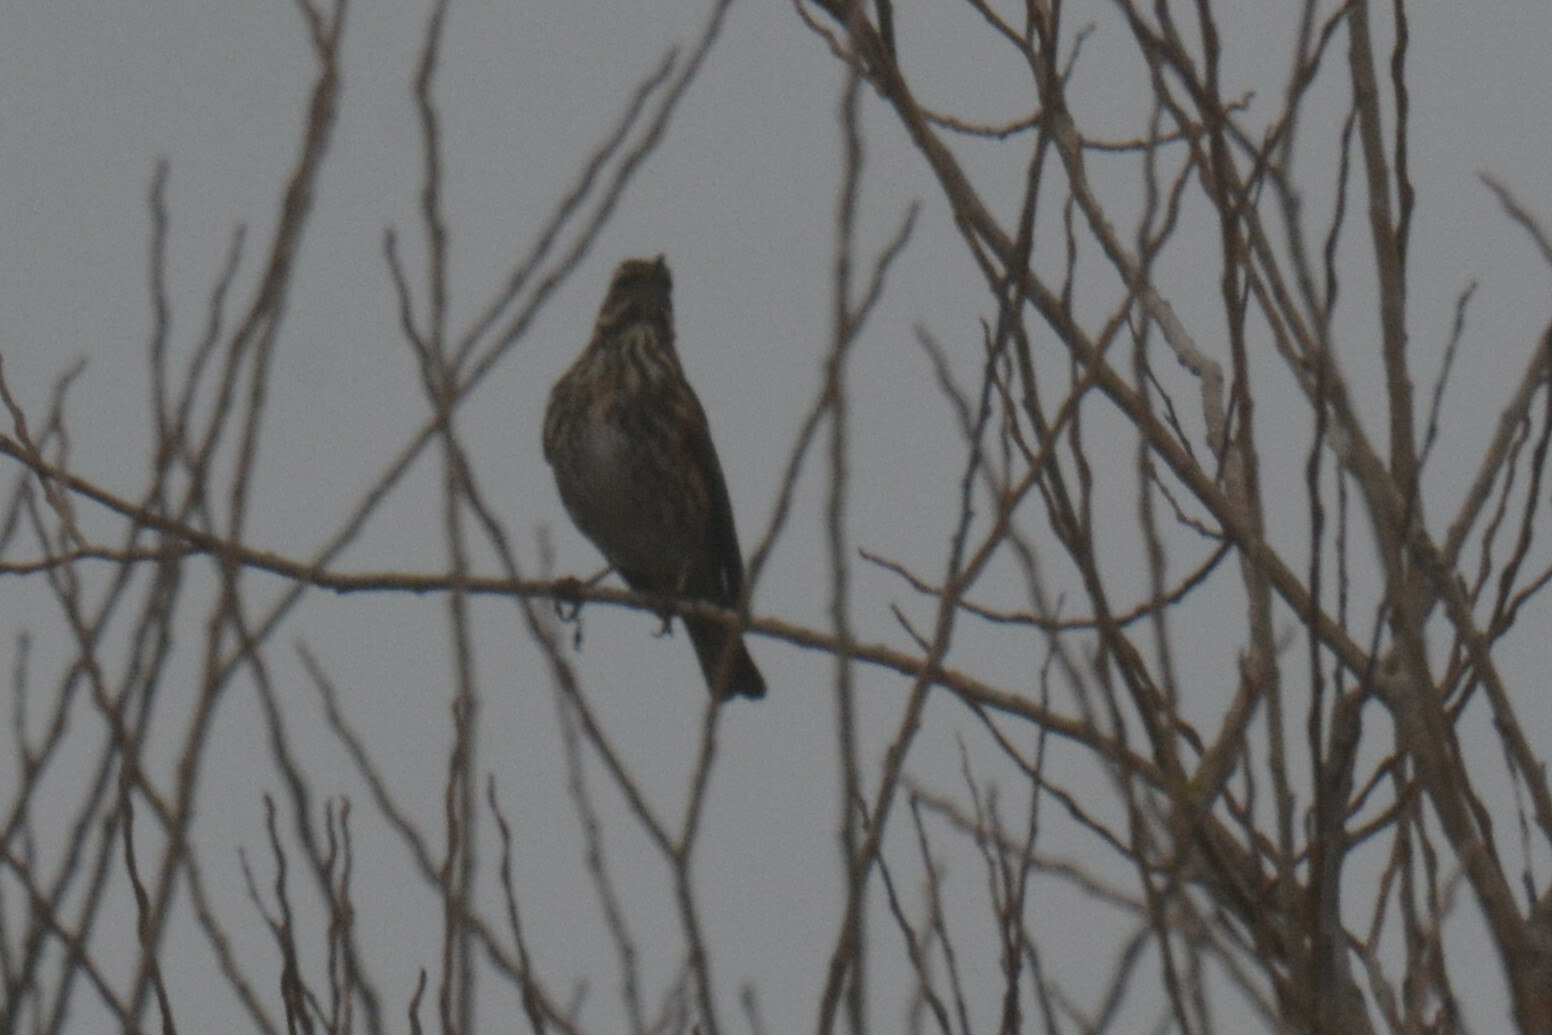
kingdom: Animalia
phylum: Chordata
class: Aves
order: Passeriformes
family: Turdidae
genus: Turdus
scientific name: Turdus iliacus
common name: Redwing
